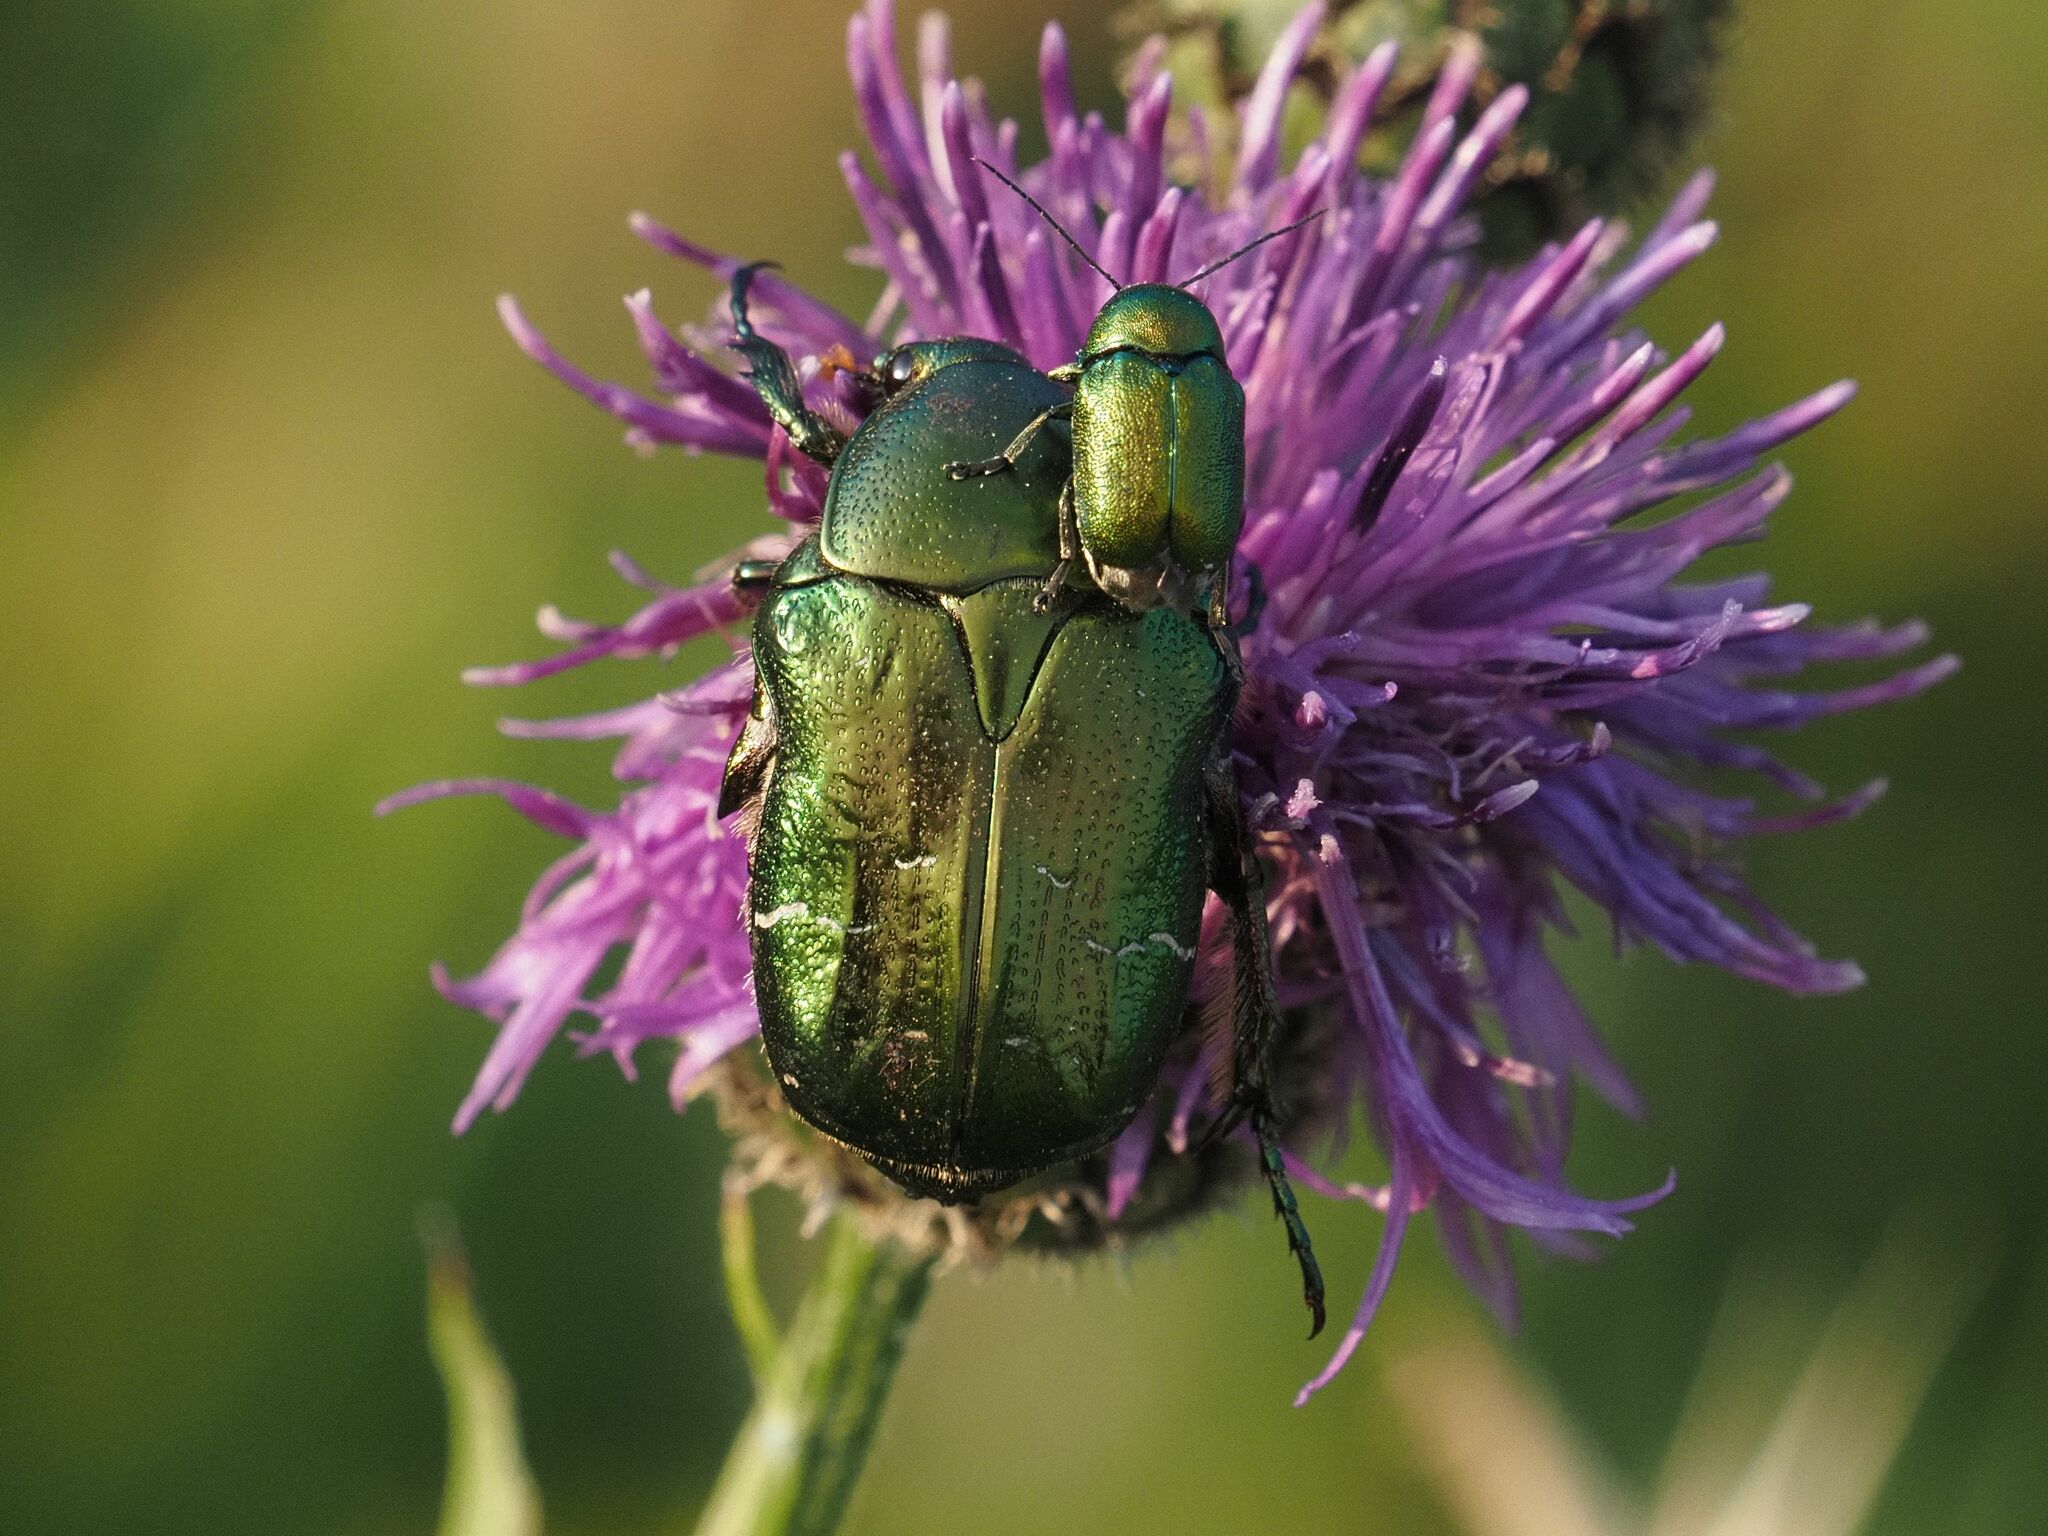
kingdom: Animalia
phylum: Arthropoda
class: Insecta
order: Coleoptera
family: Scarabaeidae
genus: Cetonia
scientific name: Cetonia aurata
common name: Rose chafer
